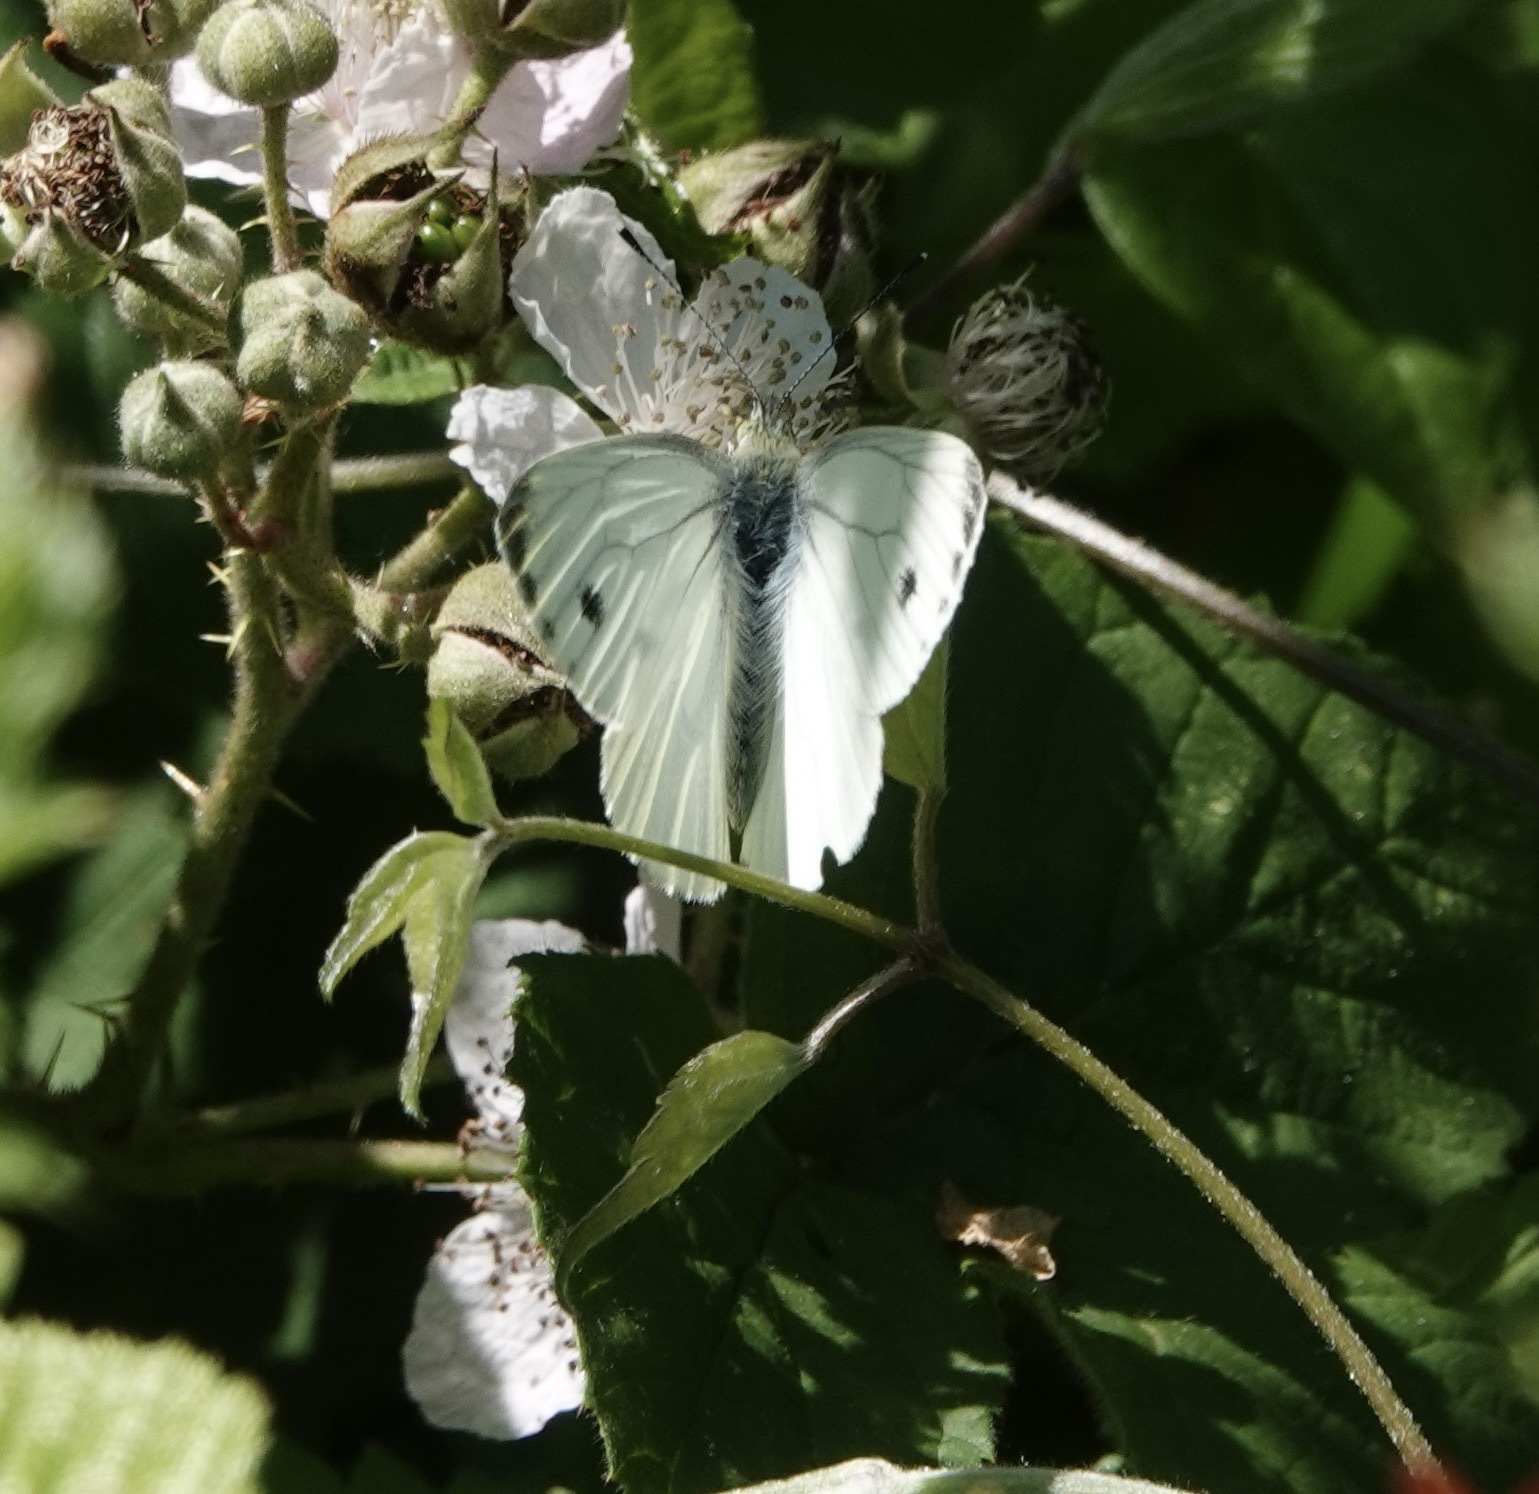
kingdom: Animalia
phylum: Arthropoda
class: Insecta
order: Lepidoptera
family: Pieridae
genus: Pieris
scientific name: Pieris napi
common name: Green-veined white
